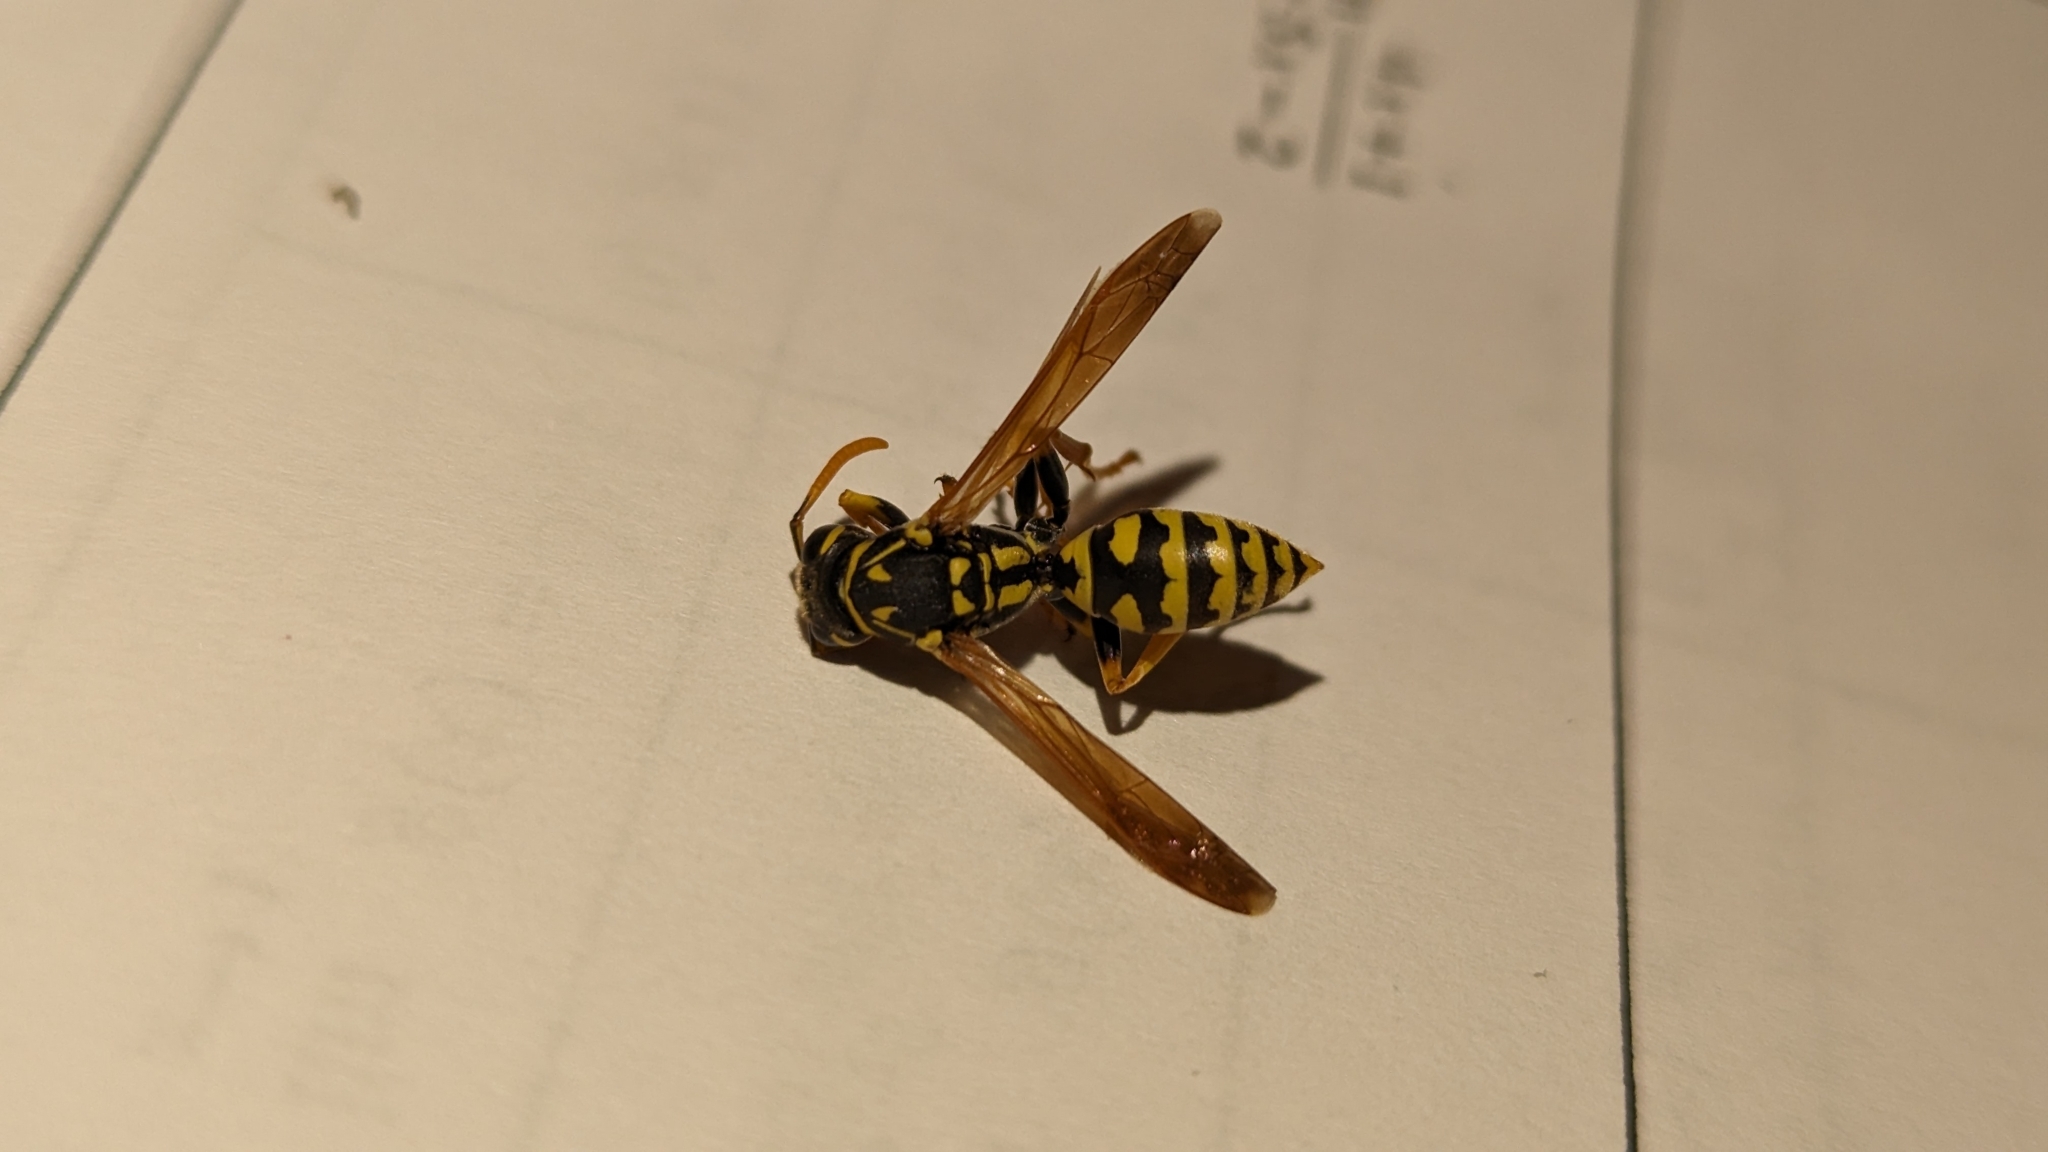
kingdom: Animalia
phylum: Arthropoda
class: Insecta
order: Hymenoptera
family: Eumenidae
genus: Polistes
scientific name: Polistes dominula
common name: Paper wasp
